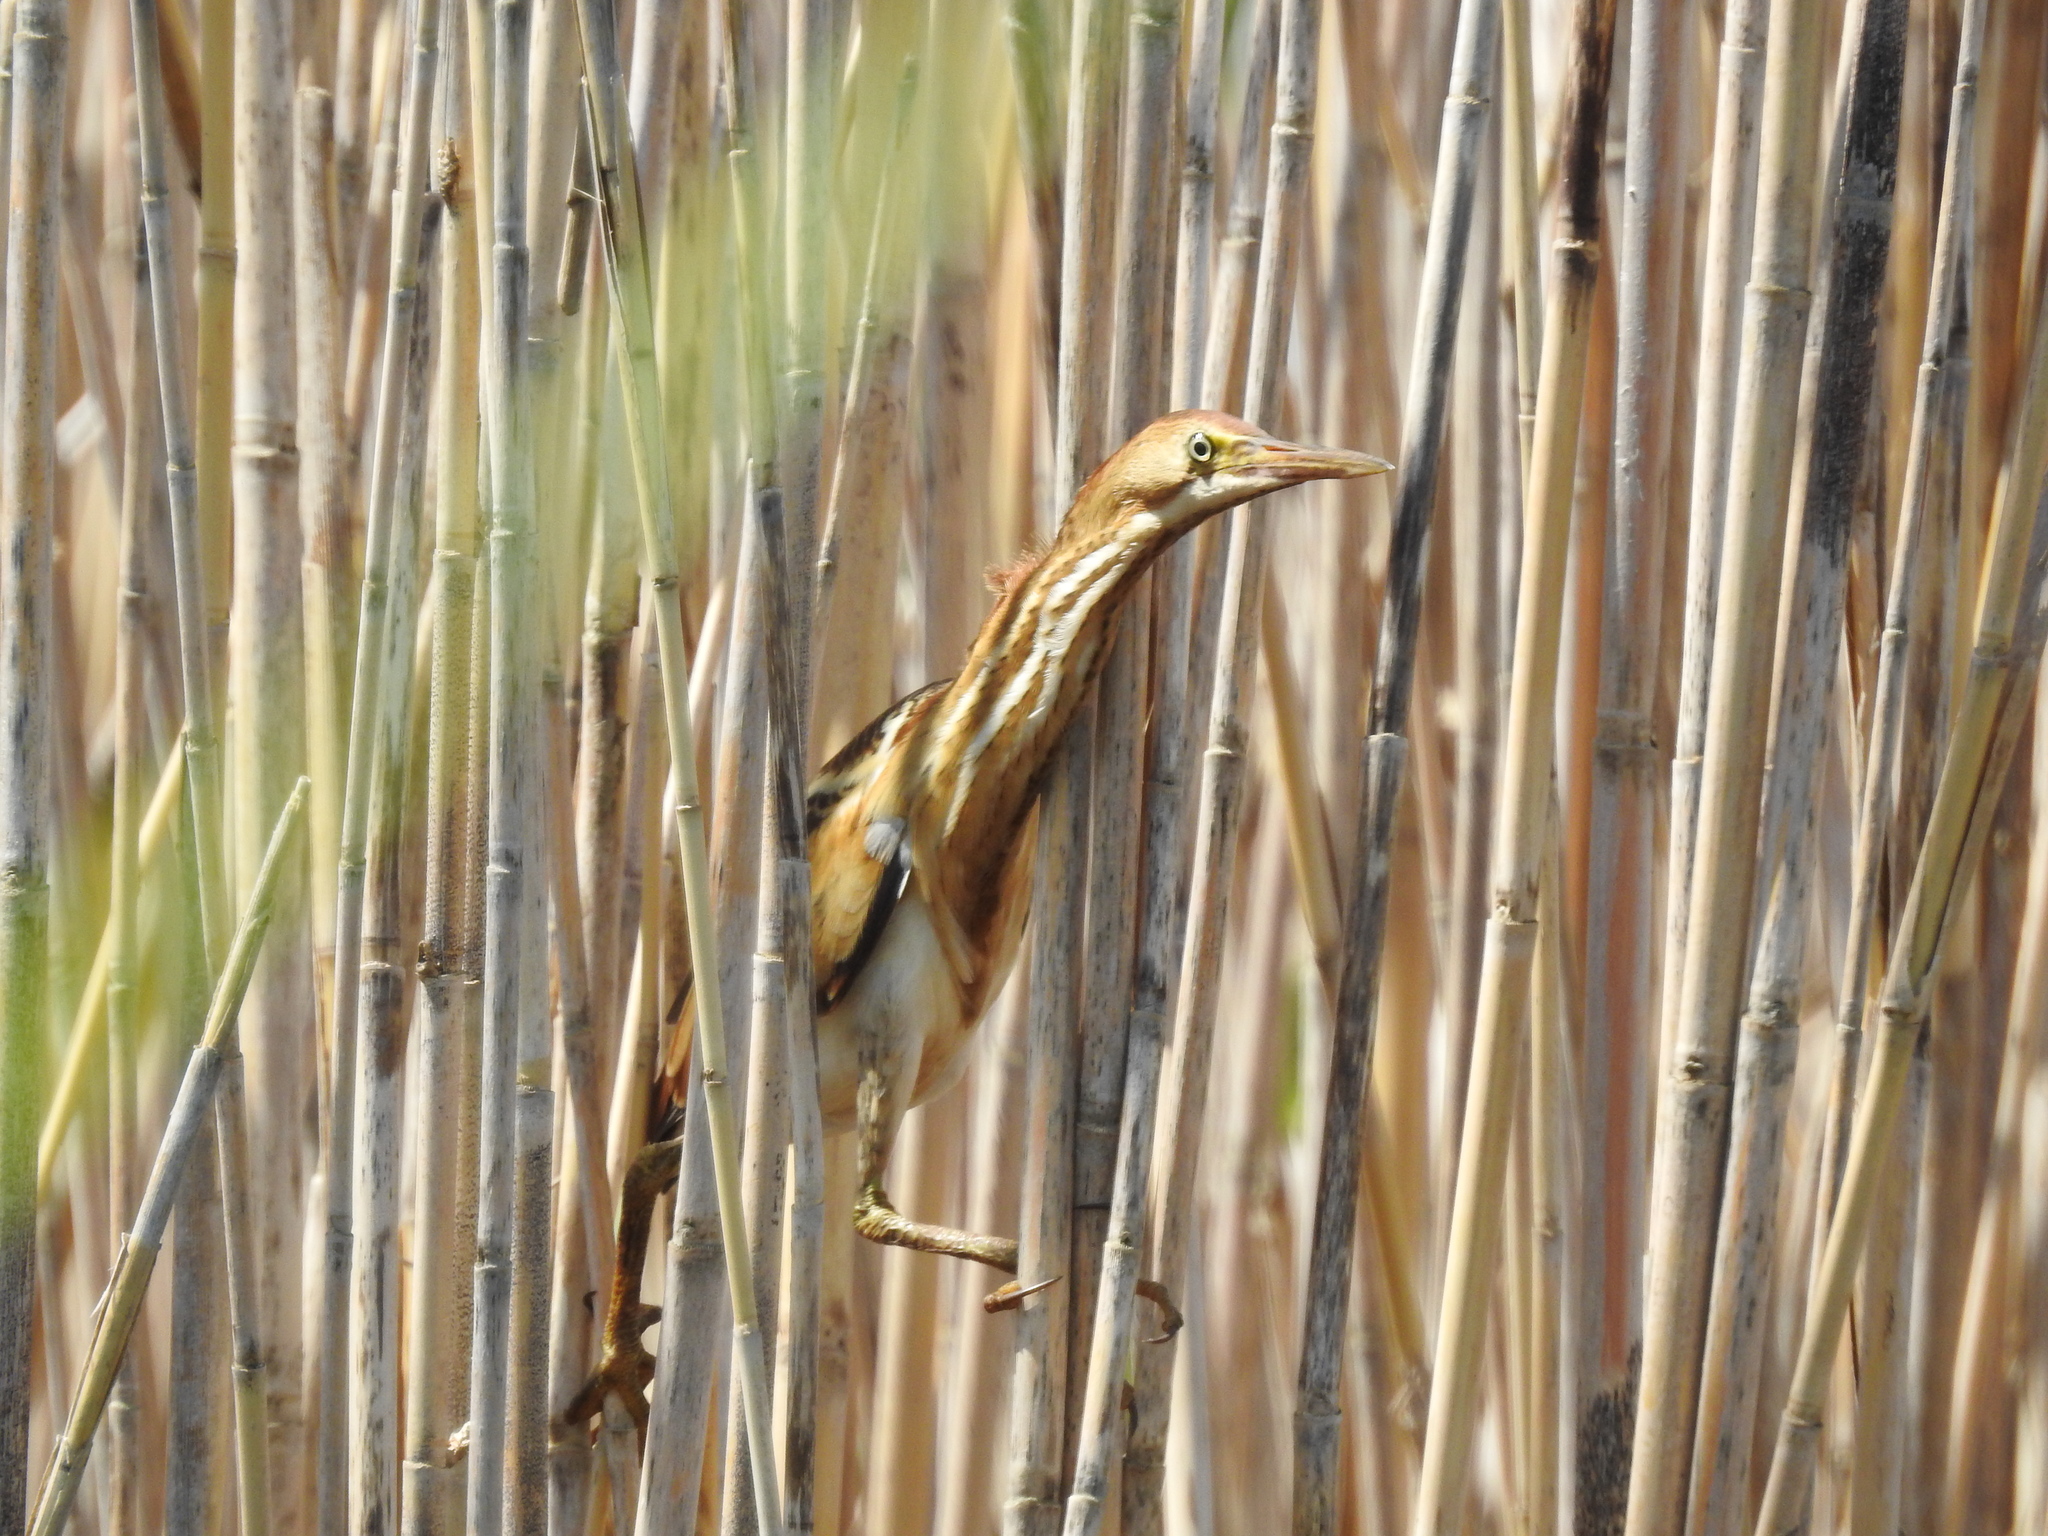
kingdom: Animalia
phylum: Chordata
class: Aves
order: Pelecaniformes
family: Ardeidae
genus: Ixobrychus
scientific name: Ixobrychus exilis
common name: Least bittern
